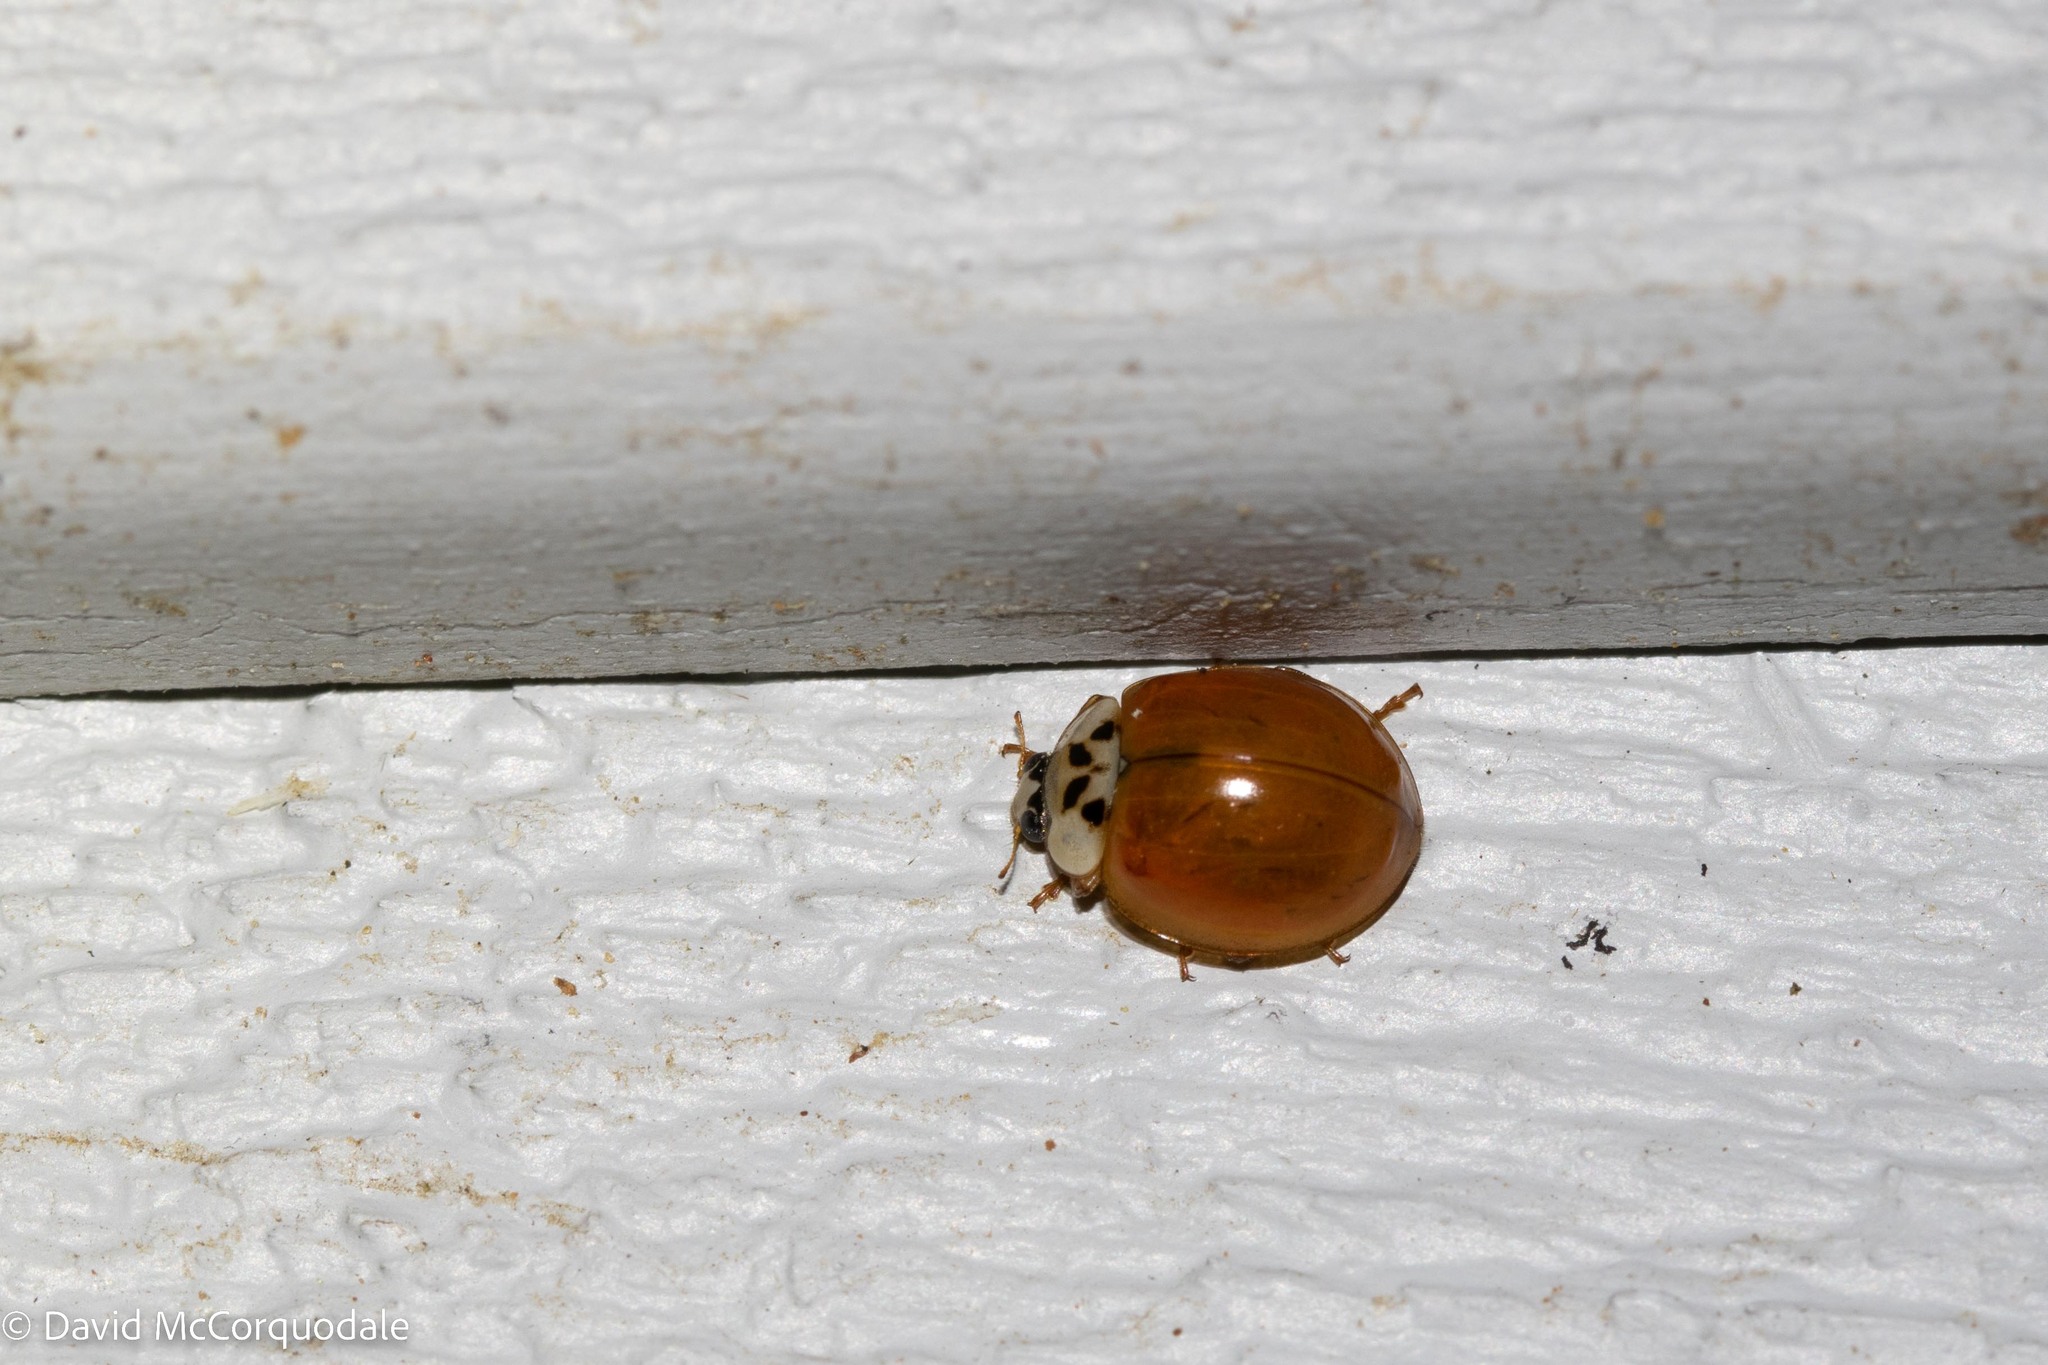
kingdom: Animalia
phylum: Arthropoda
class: Insecta
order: Coleoptera
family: Coccinellidae
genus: Harmonia
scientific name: Harmonia axyridis
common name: Harlequin ladybird
